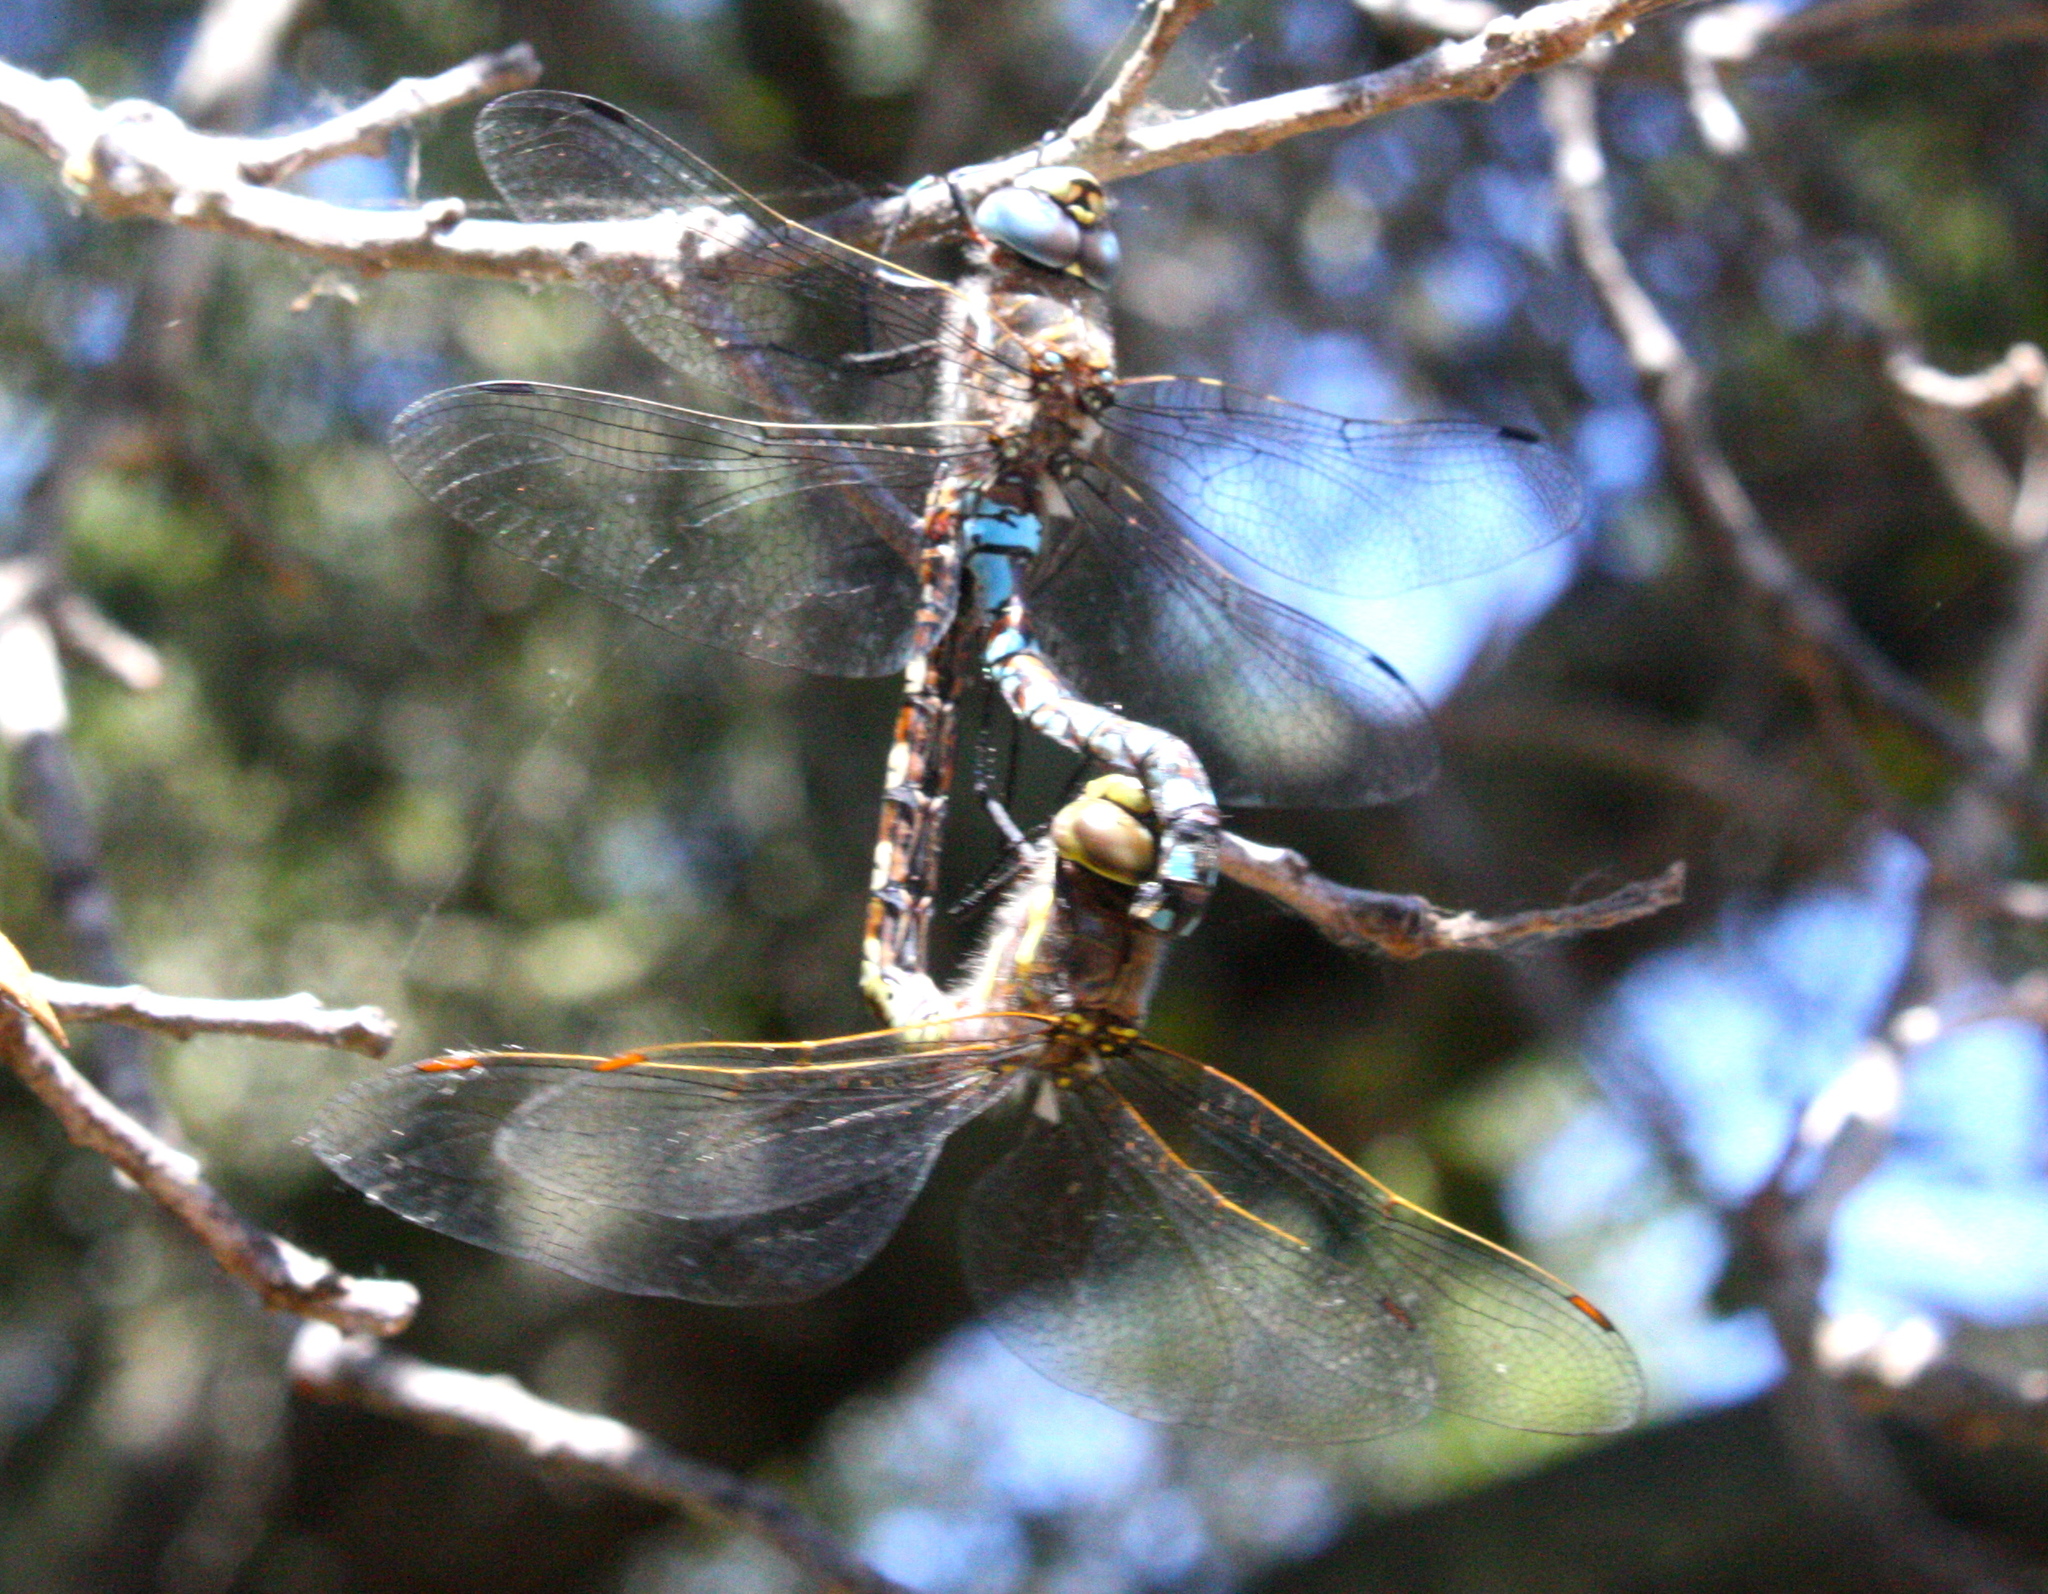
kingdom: Animalia
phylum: Arthropoda
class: Insecta
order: Odonata
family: Aeshnidae
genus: Rhionaeschna
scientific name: Rhionaeschna multicolor
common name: Blue-eyed darner
